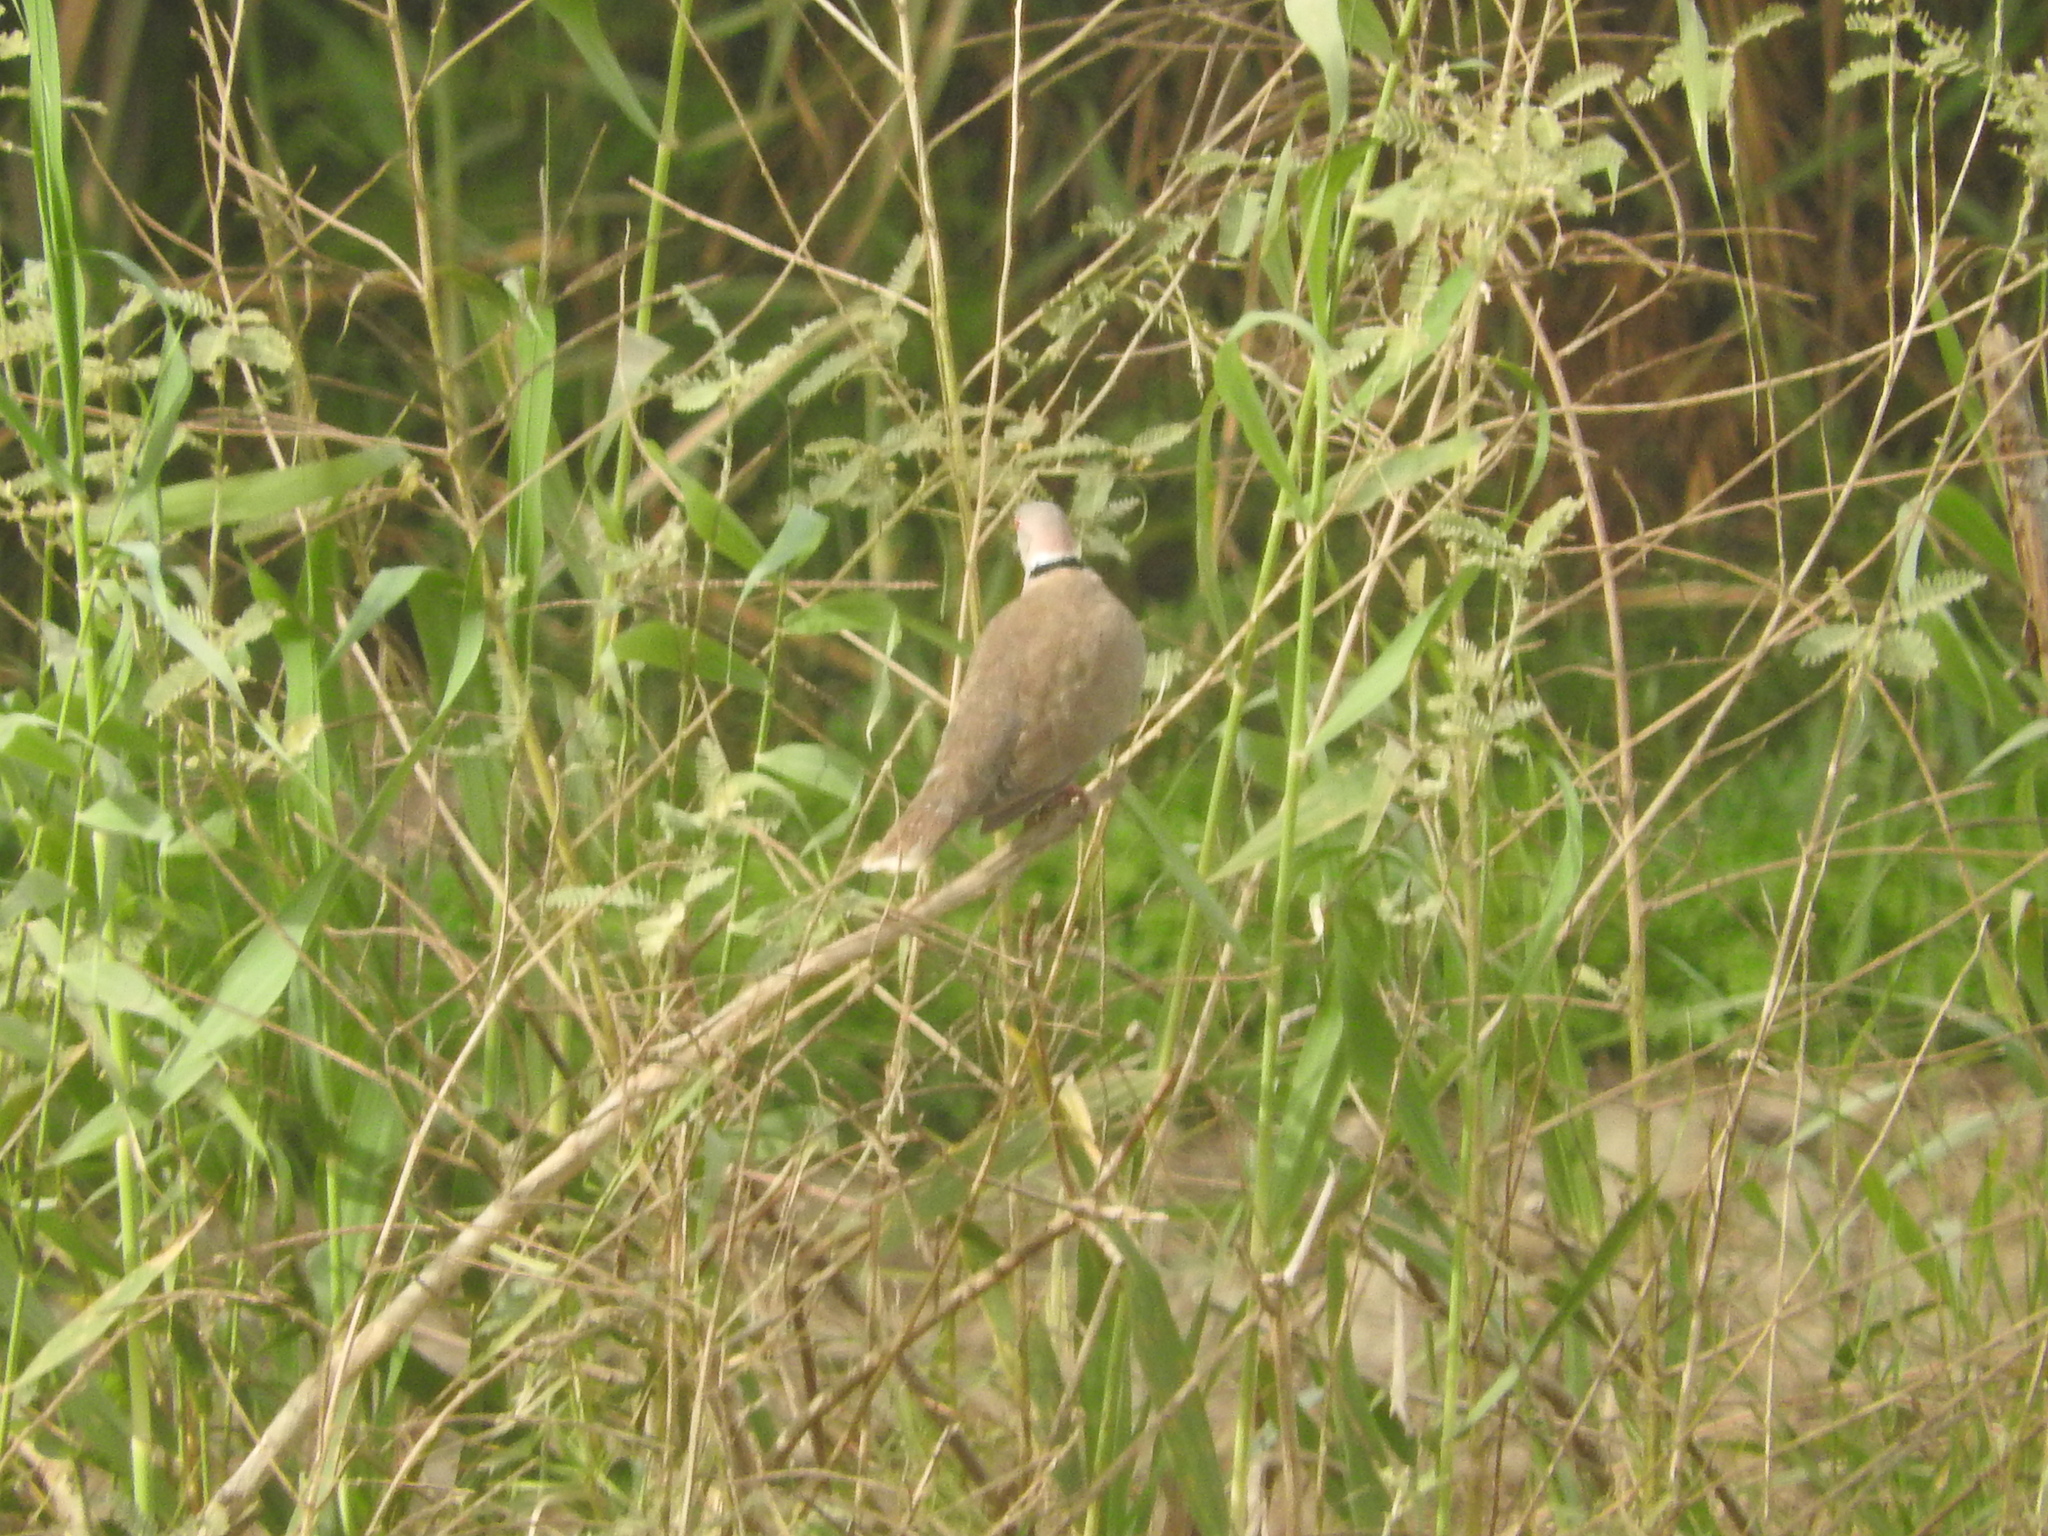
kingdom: Animalia
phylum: Chordata
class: Aves
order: Columbiformes
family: Columbidae
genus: Streptopelia
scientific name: Streptopelia decipiens
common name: Mourning collared dove
